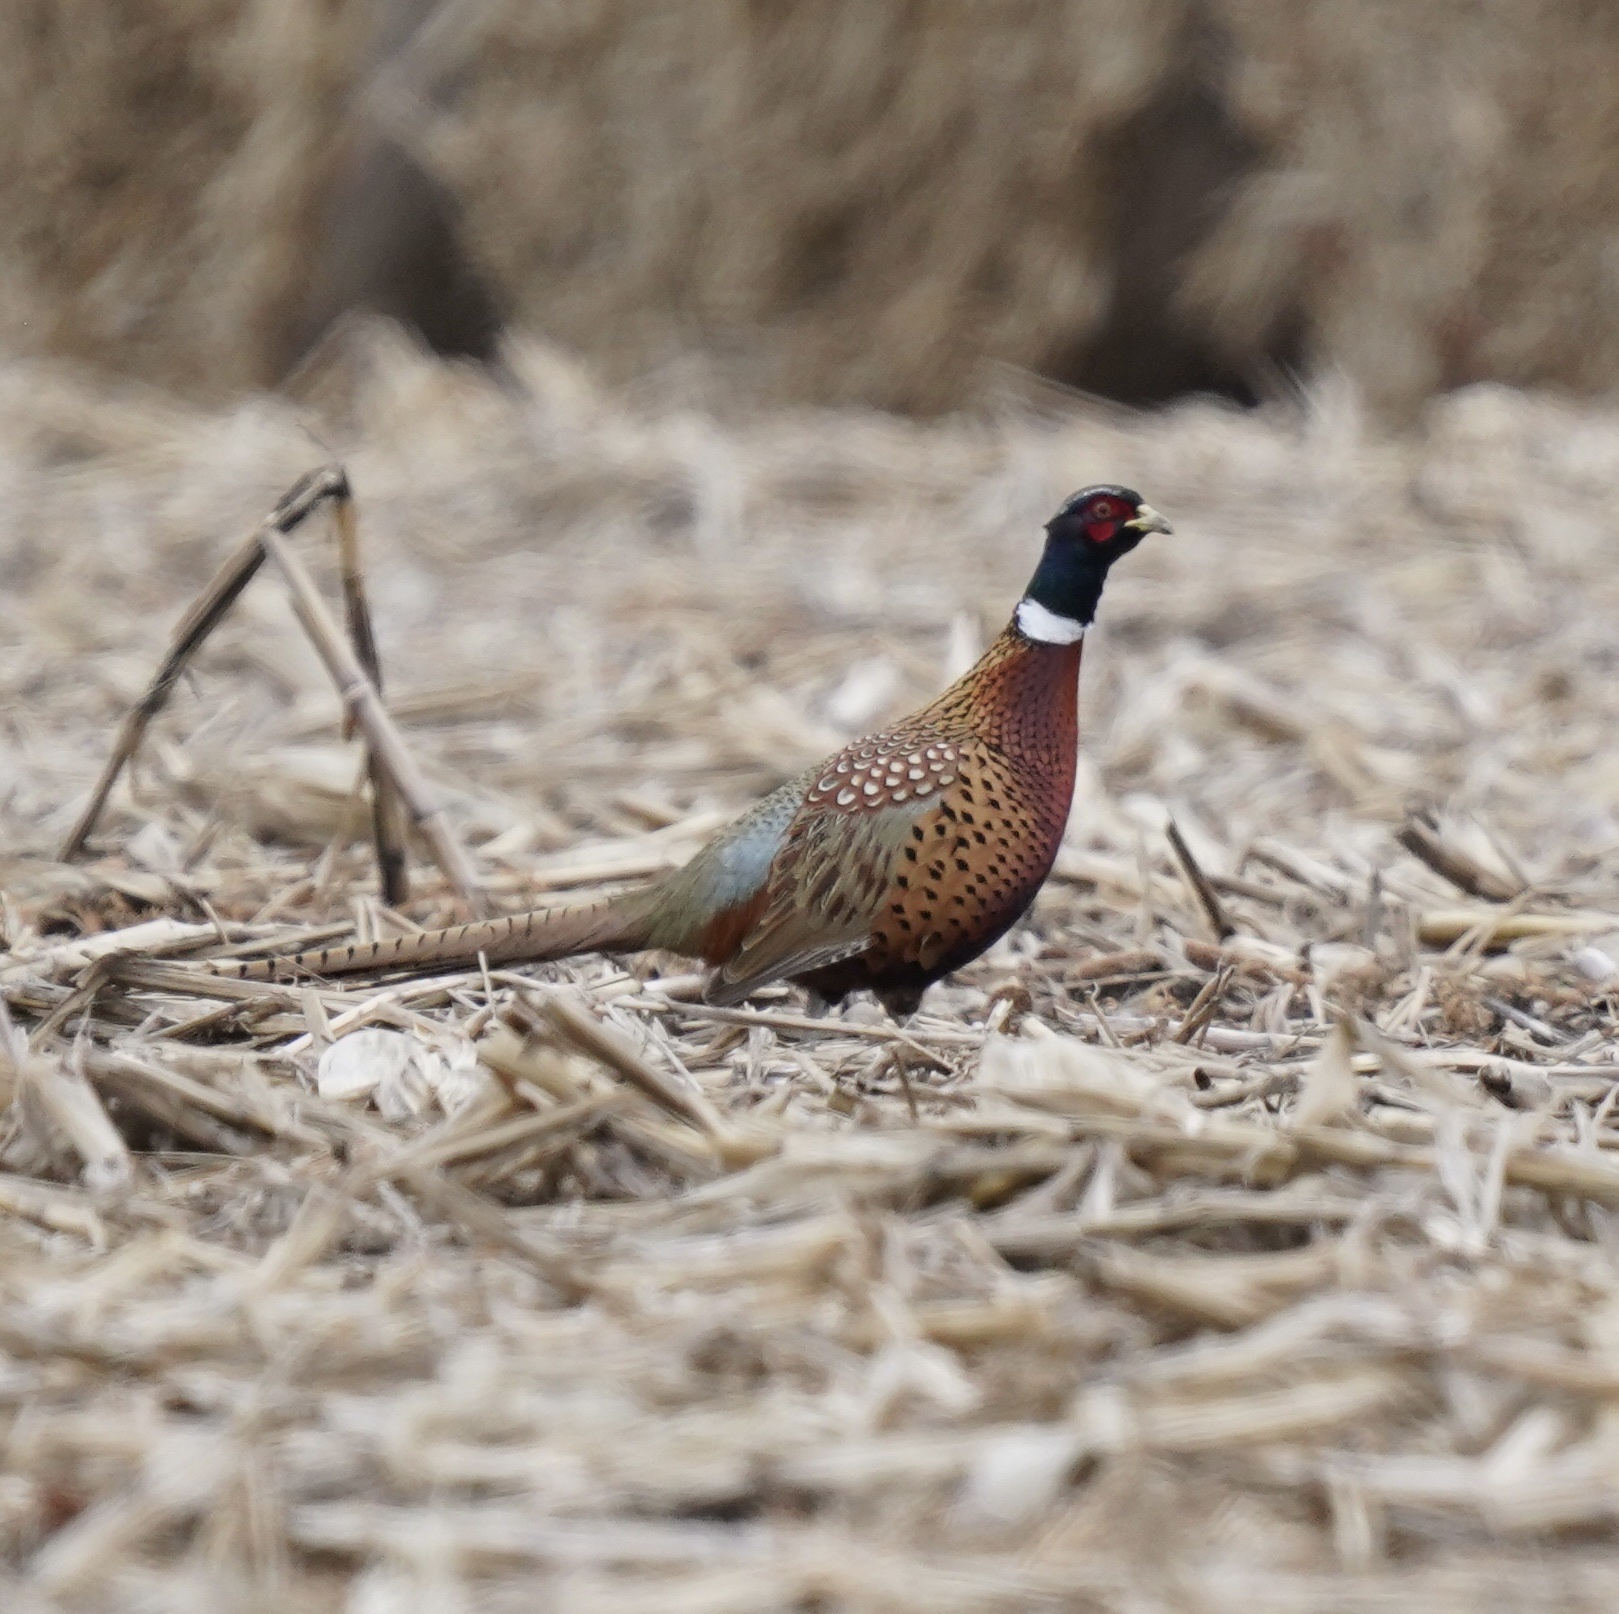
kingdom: Animalia
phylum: Chordata
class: Aves
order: Galliformes
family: Phasianidae
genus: Phasianus
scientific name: Phasianus colchicus
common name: Common pheasant
